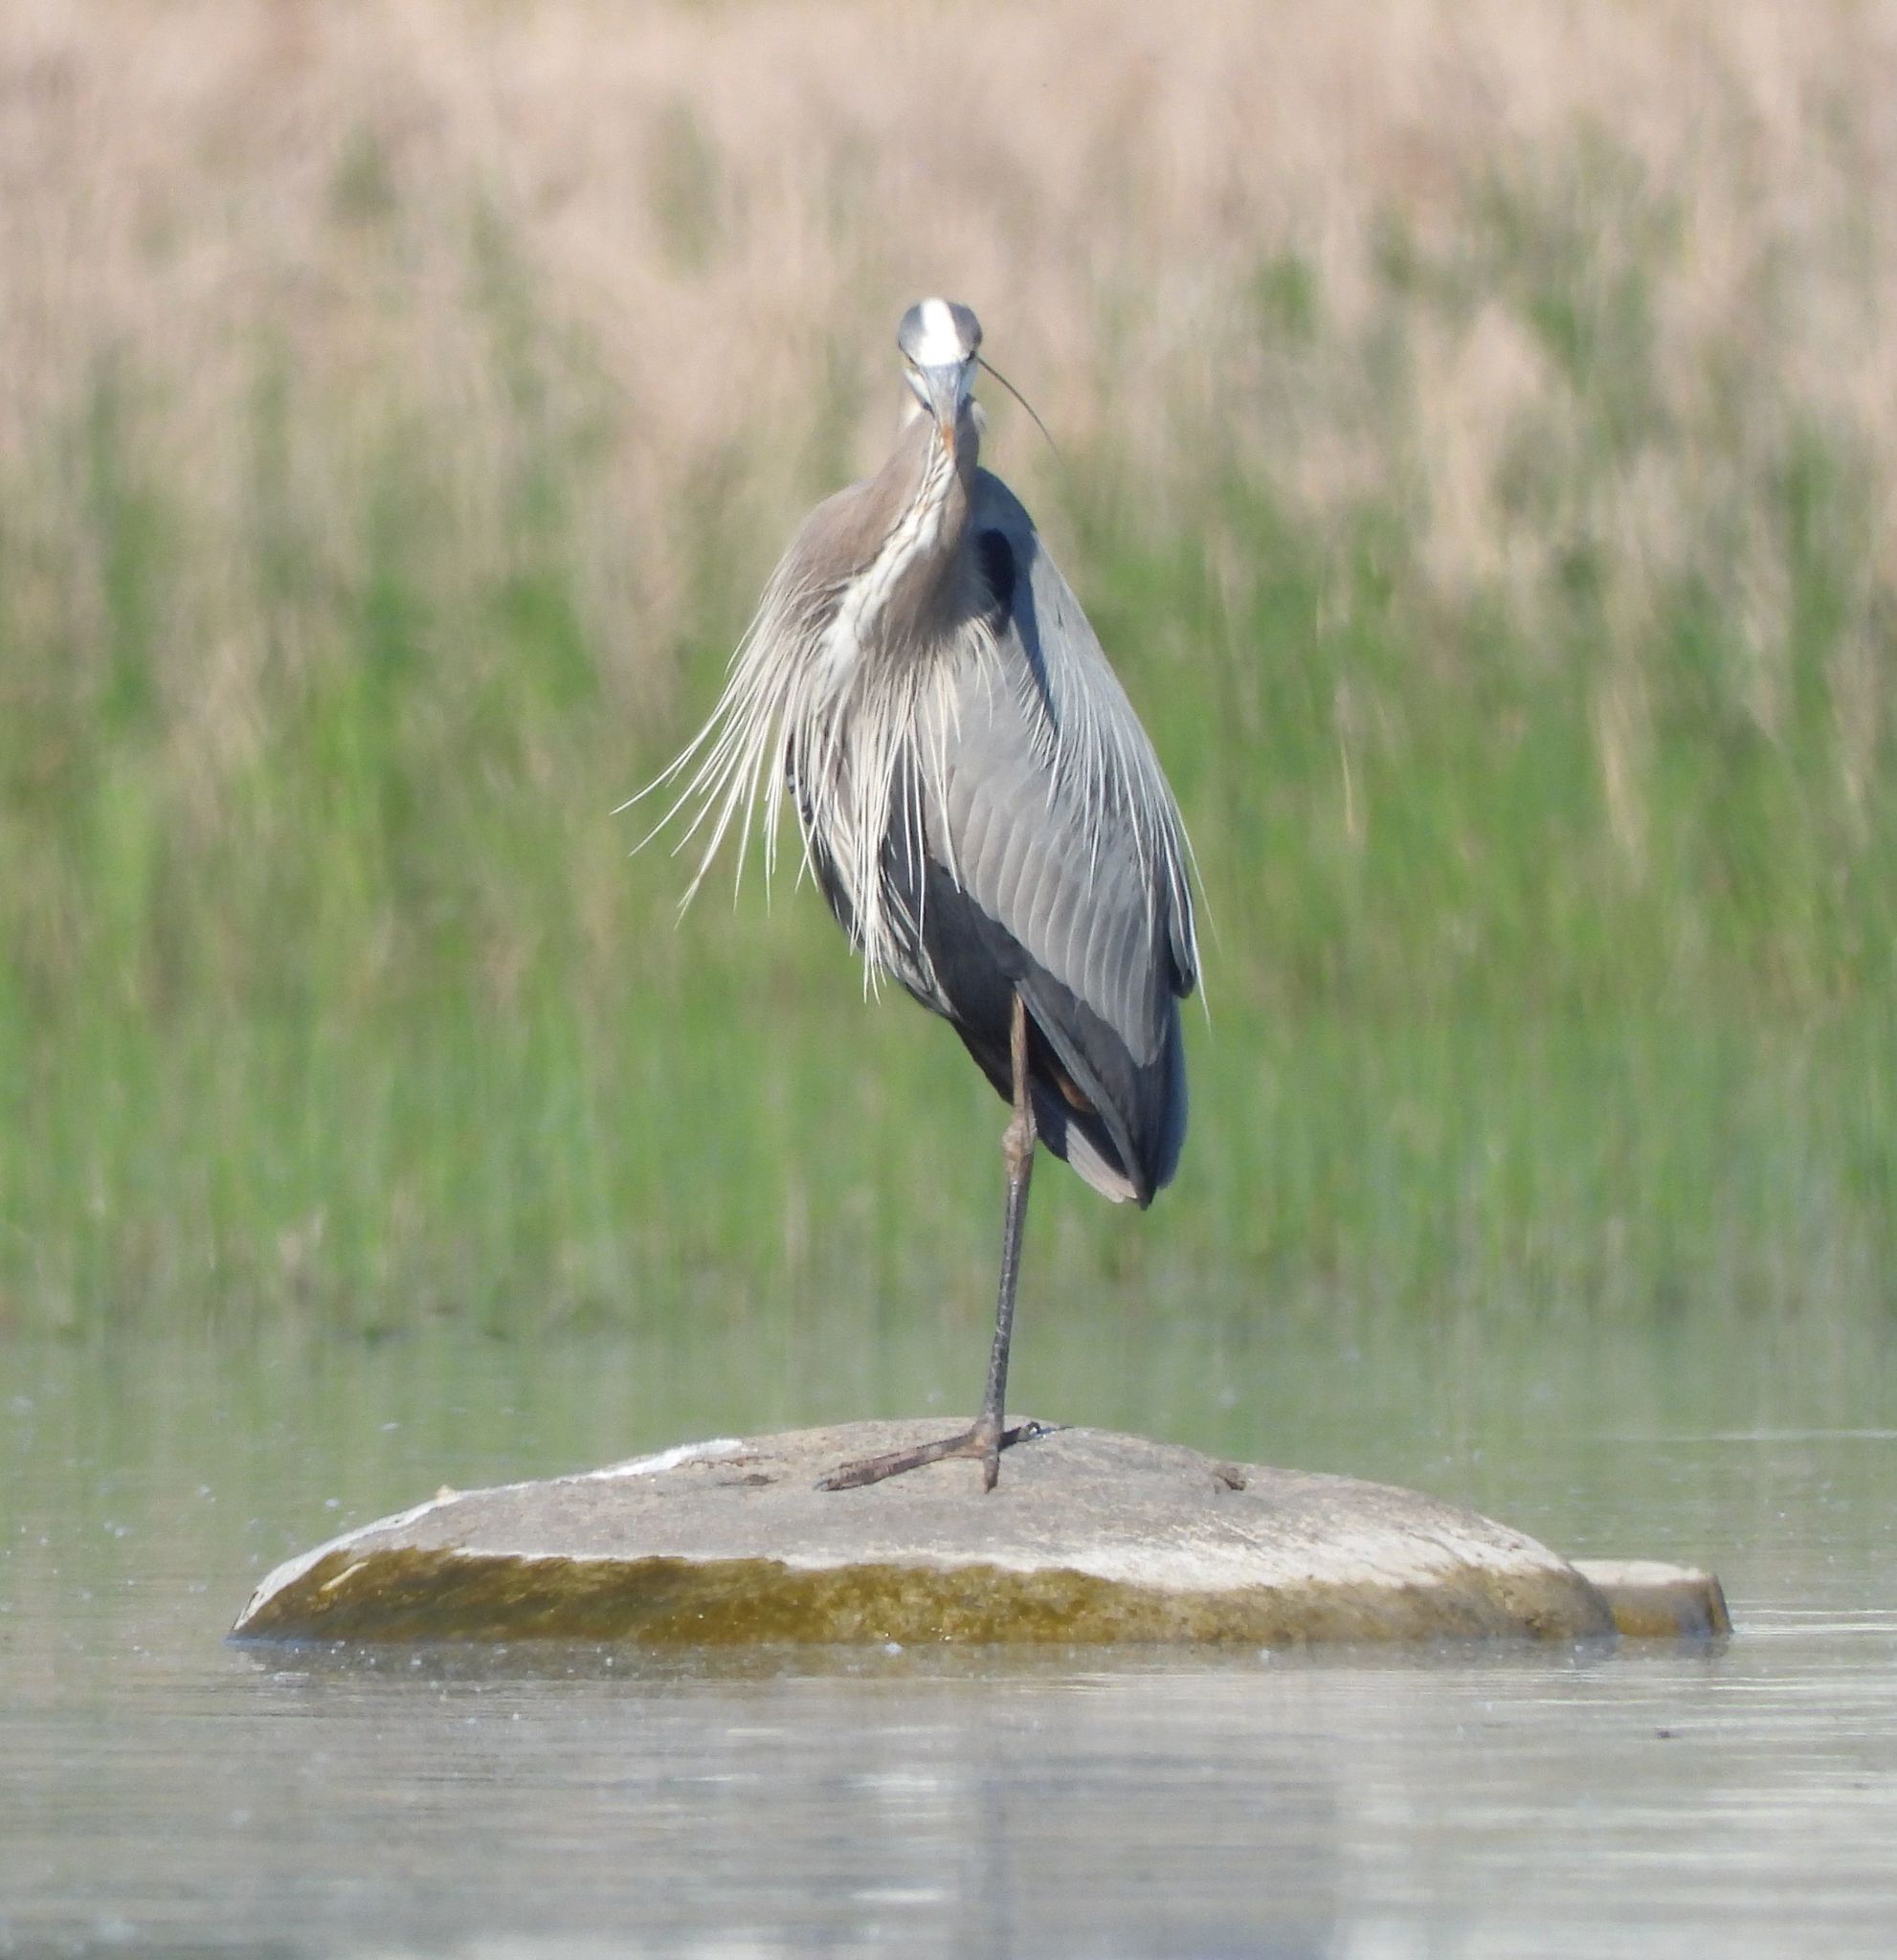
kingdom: Animalia
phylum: Chordata
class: Aves
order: Pelecaniformes
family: Ardeidae
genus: Ardea
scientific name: Ardea herodias
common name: Great blue heron
